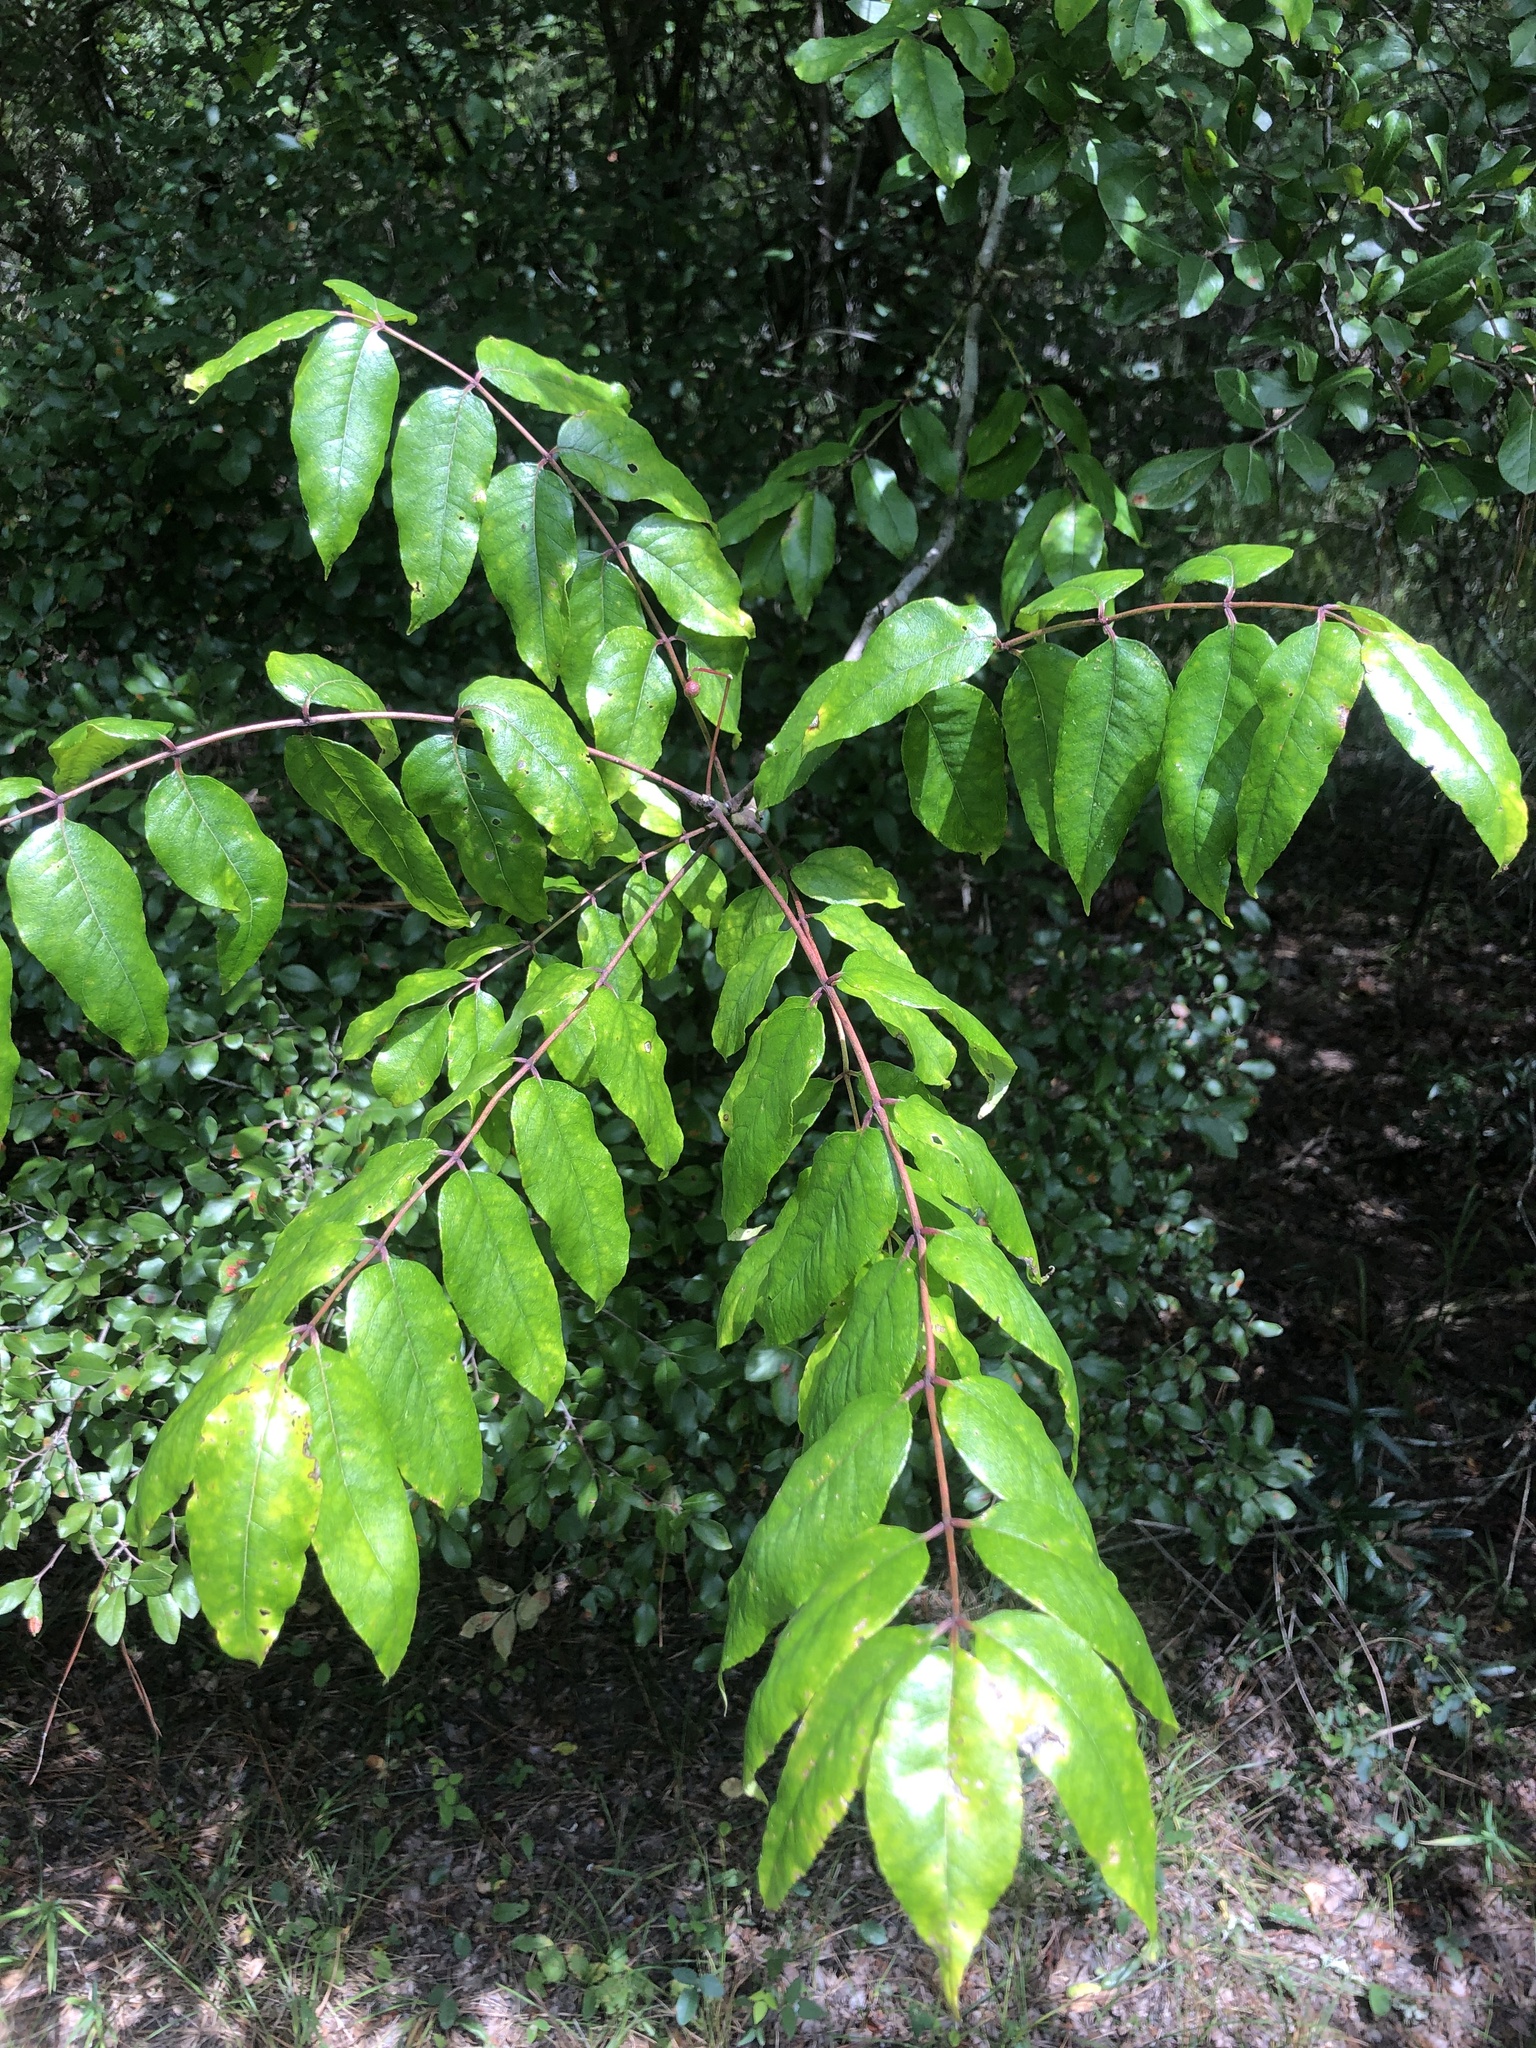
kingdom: Plantae
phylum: Tracheophyta
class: Magnoliopsida
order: Sapindales
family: Rutaceae
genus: Zanthoxylum
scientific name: Zanthoxylum clava-herculis
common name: Hercules'-club
